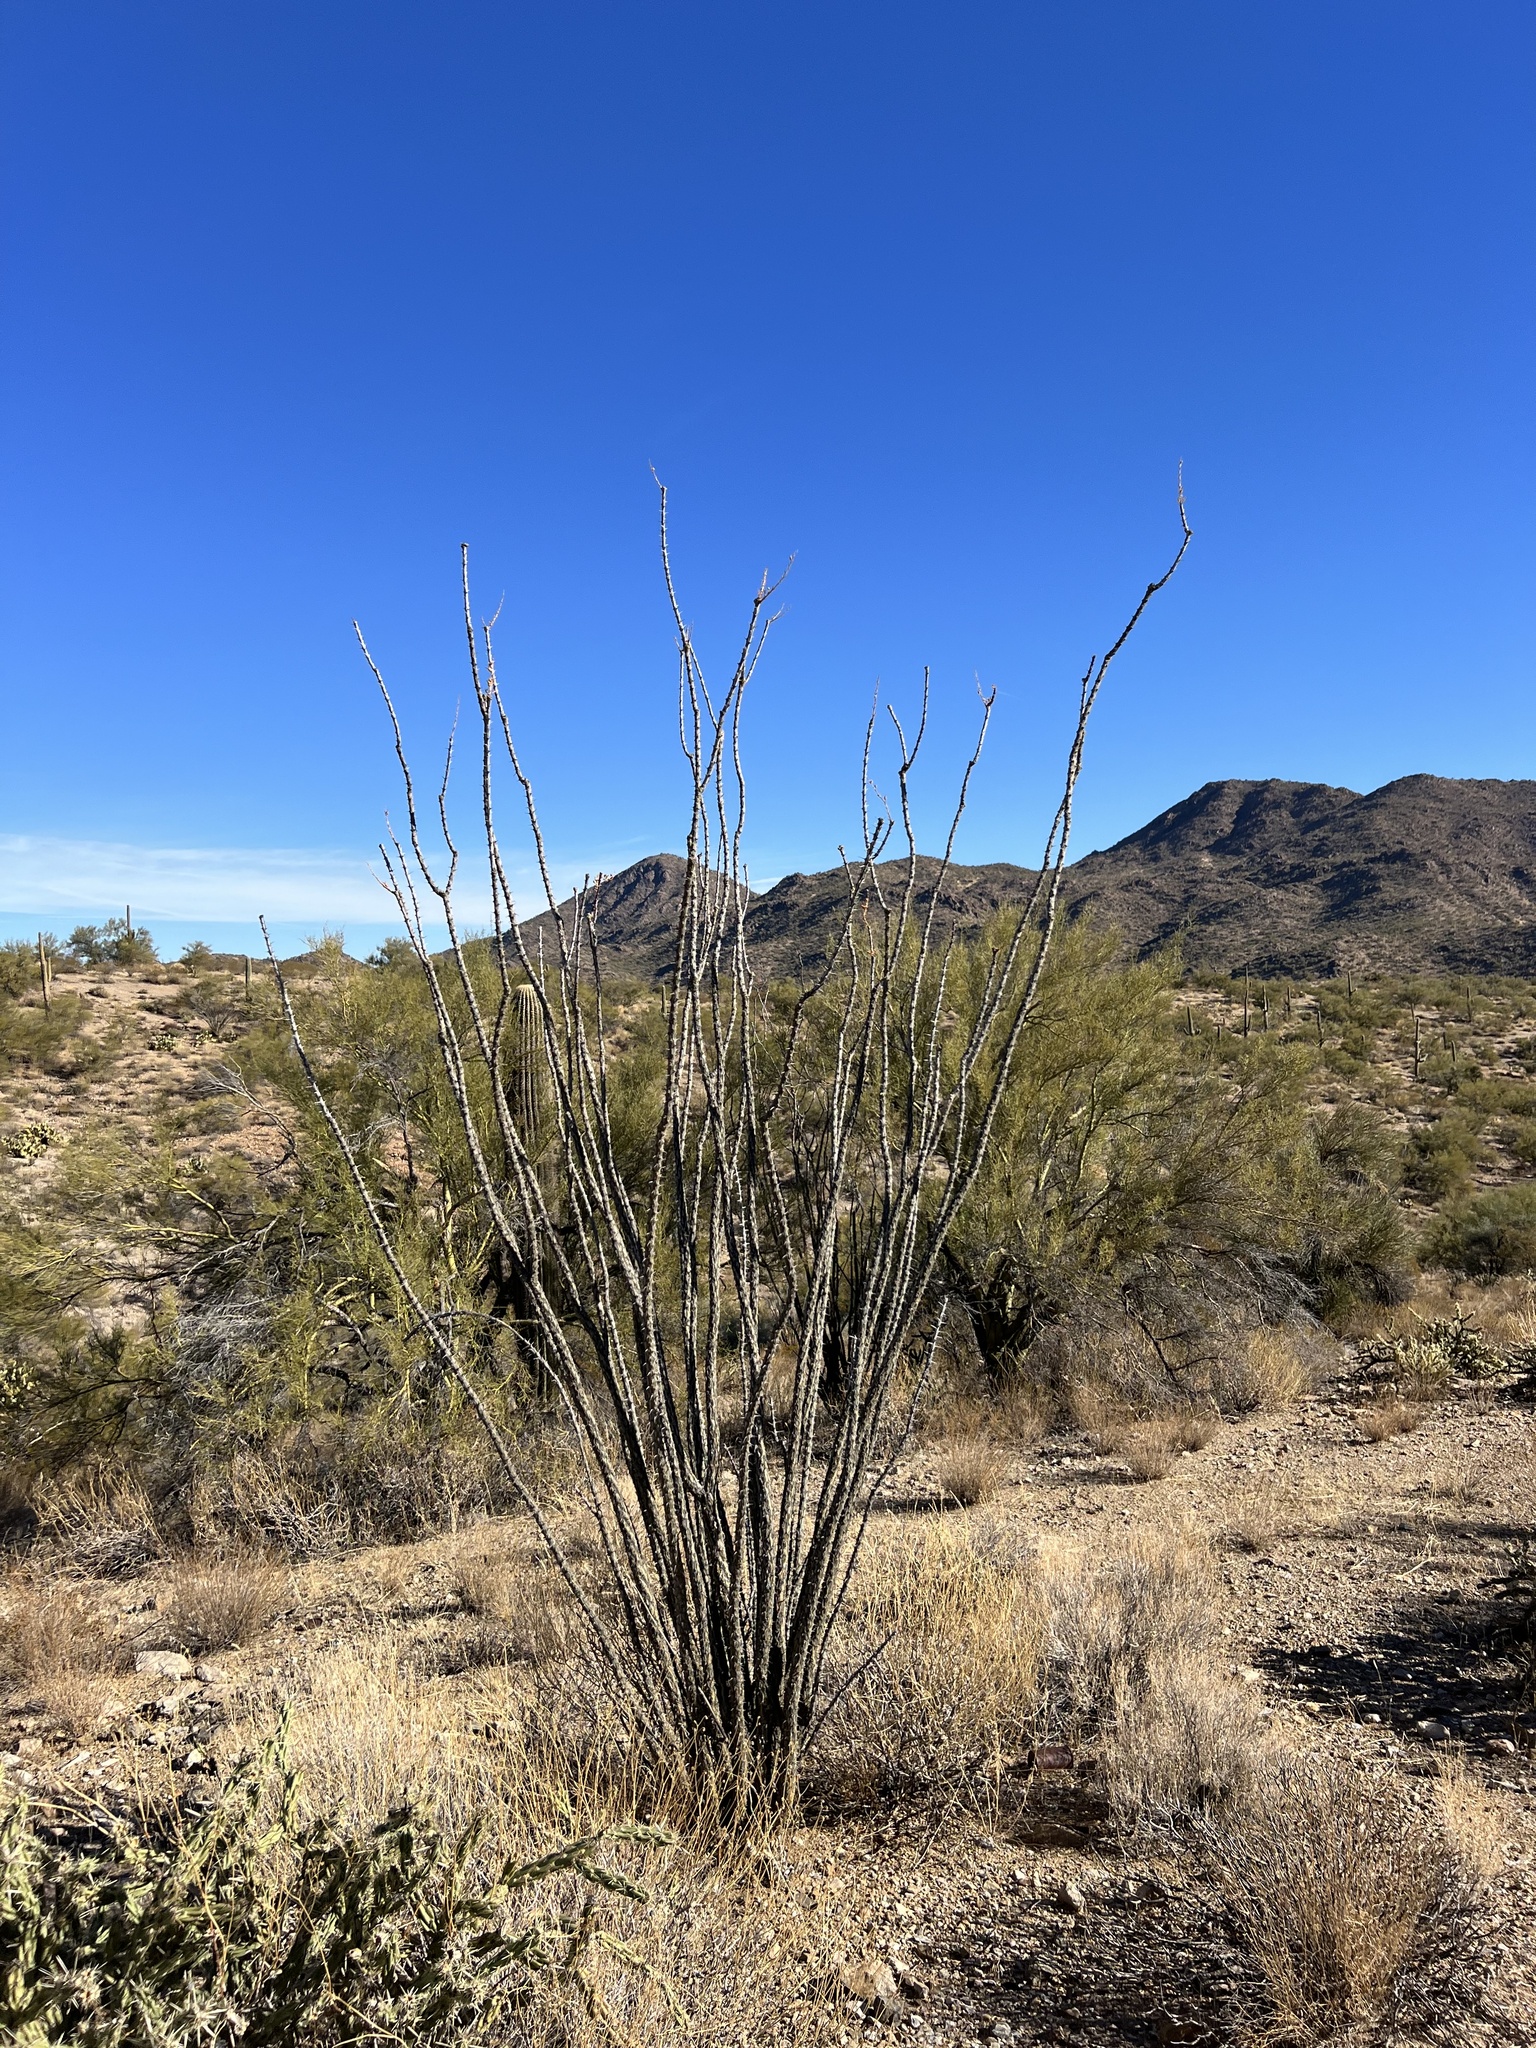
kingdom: Plantae
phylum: Tracheophyta
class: Magnoliopsida
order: Ericales
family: Fouquieriaceae
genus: Fouquieria
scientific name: Fouquieria splendens
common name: Vine-cactus
